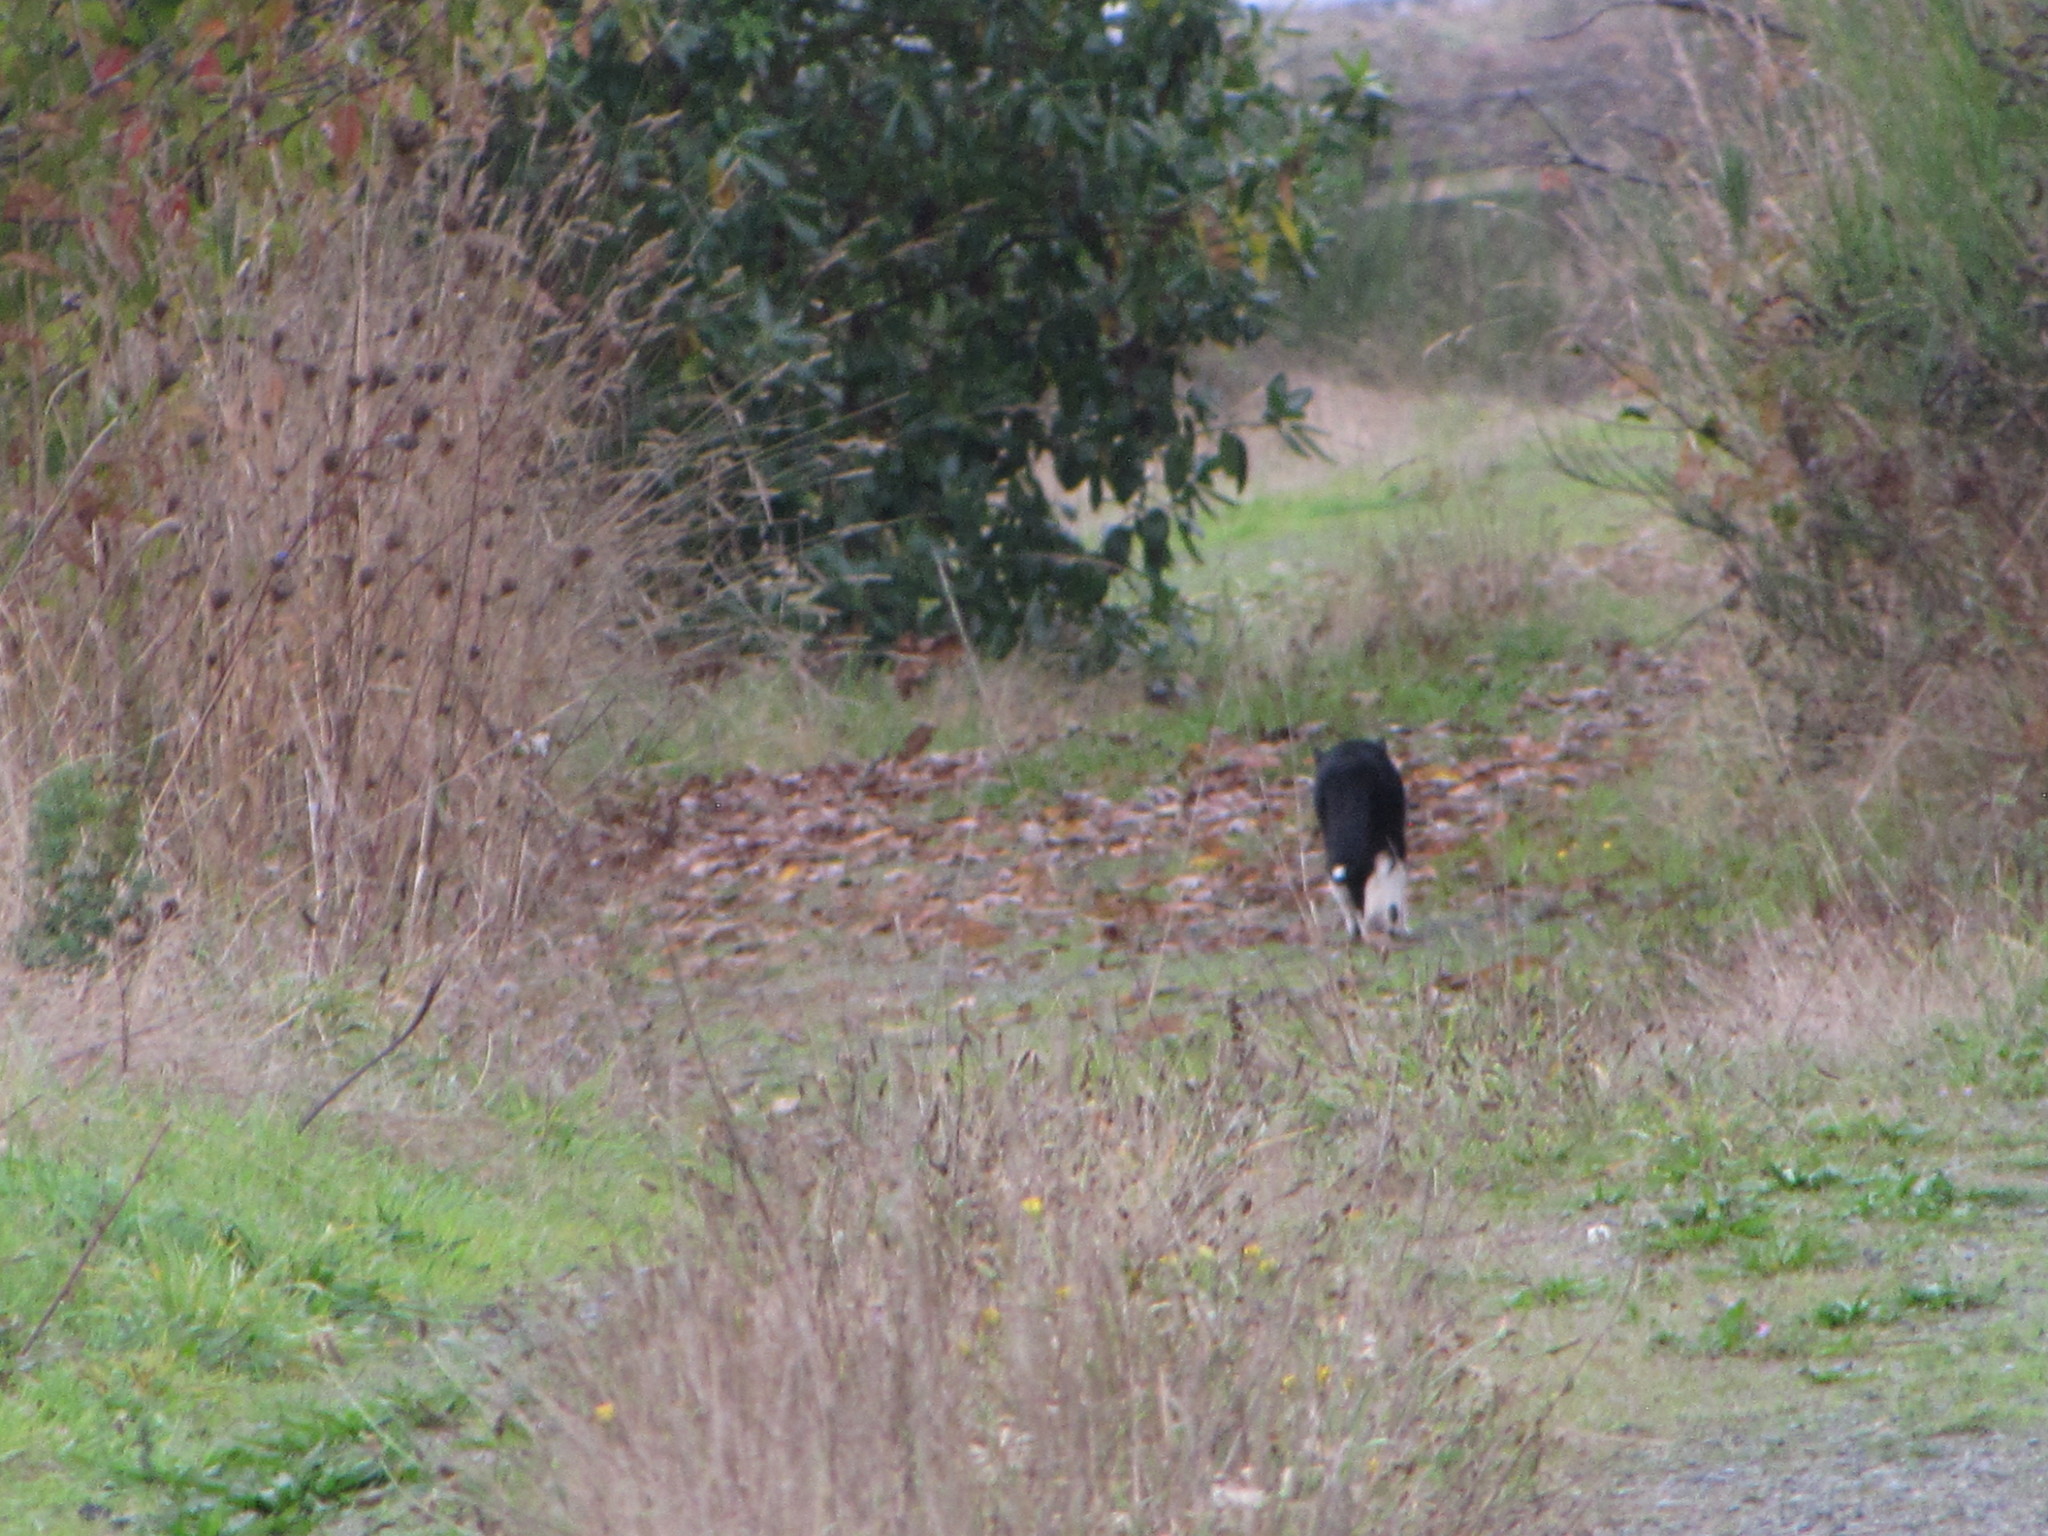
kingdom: Animalia
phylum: Chordata
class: Mammalia
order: Carnivora
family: Felidae
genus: Felis
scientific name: Felis catus
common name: Domestic cat
